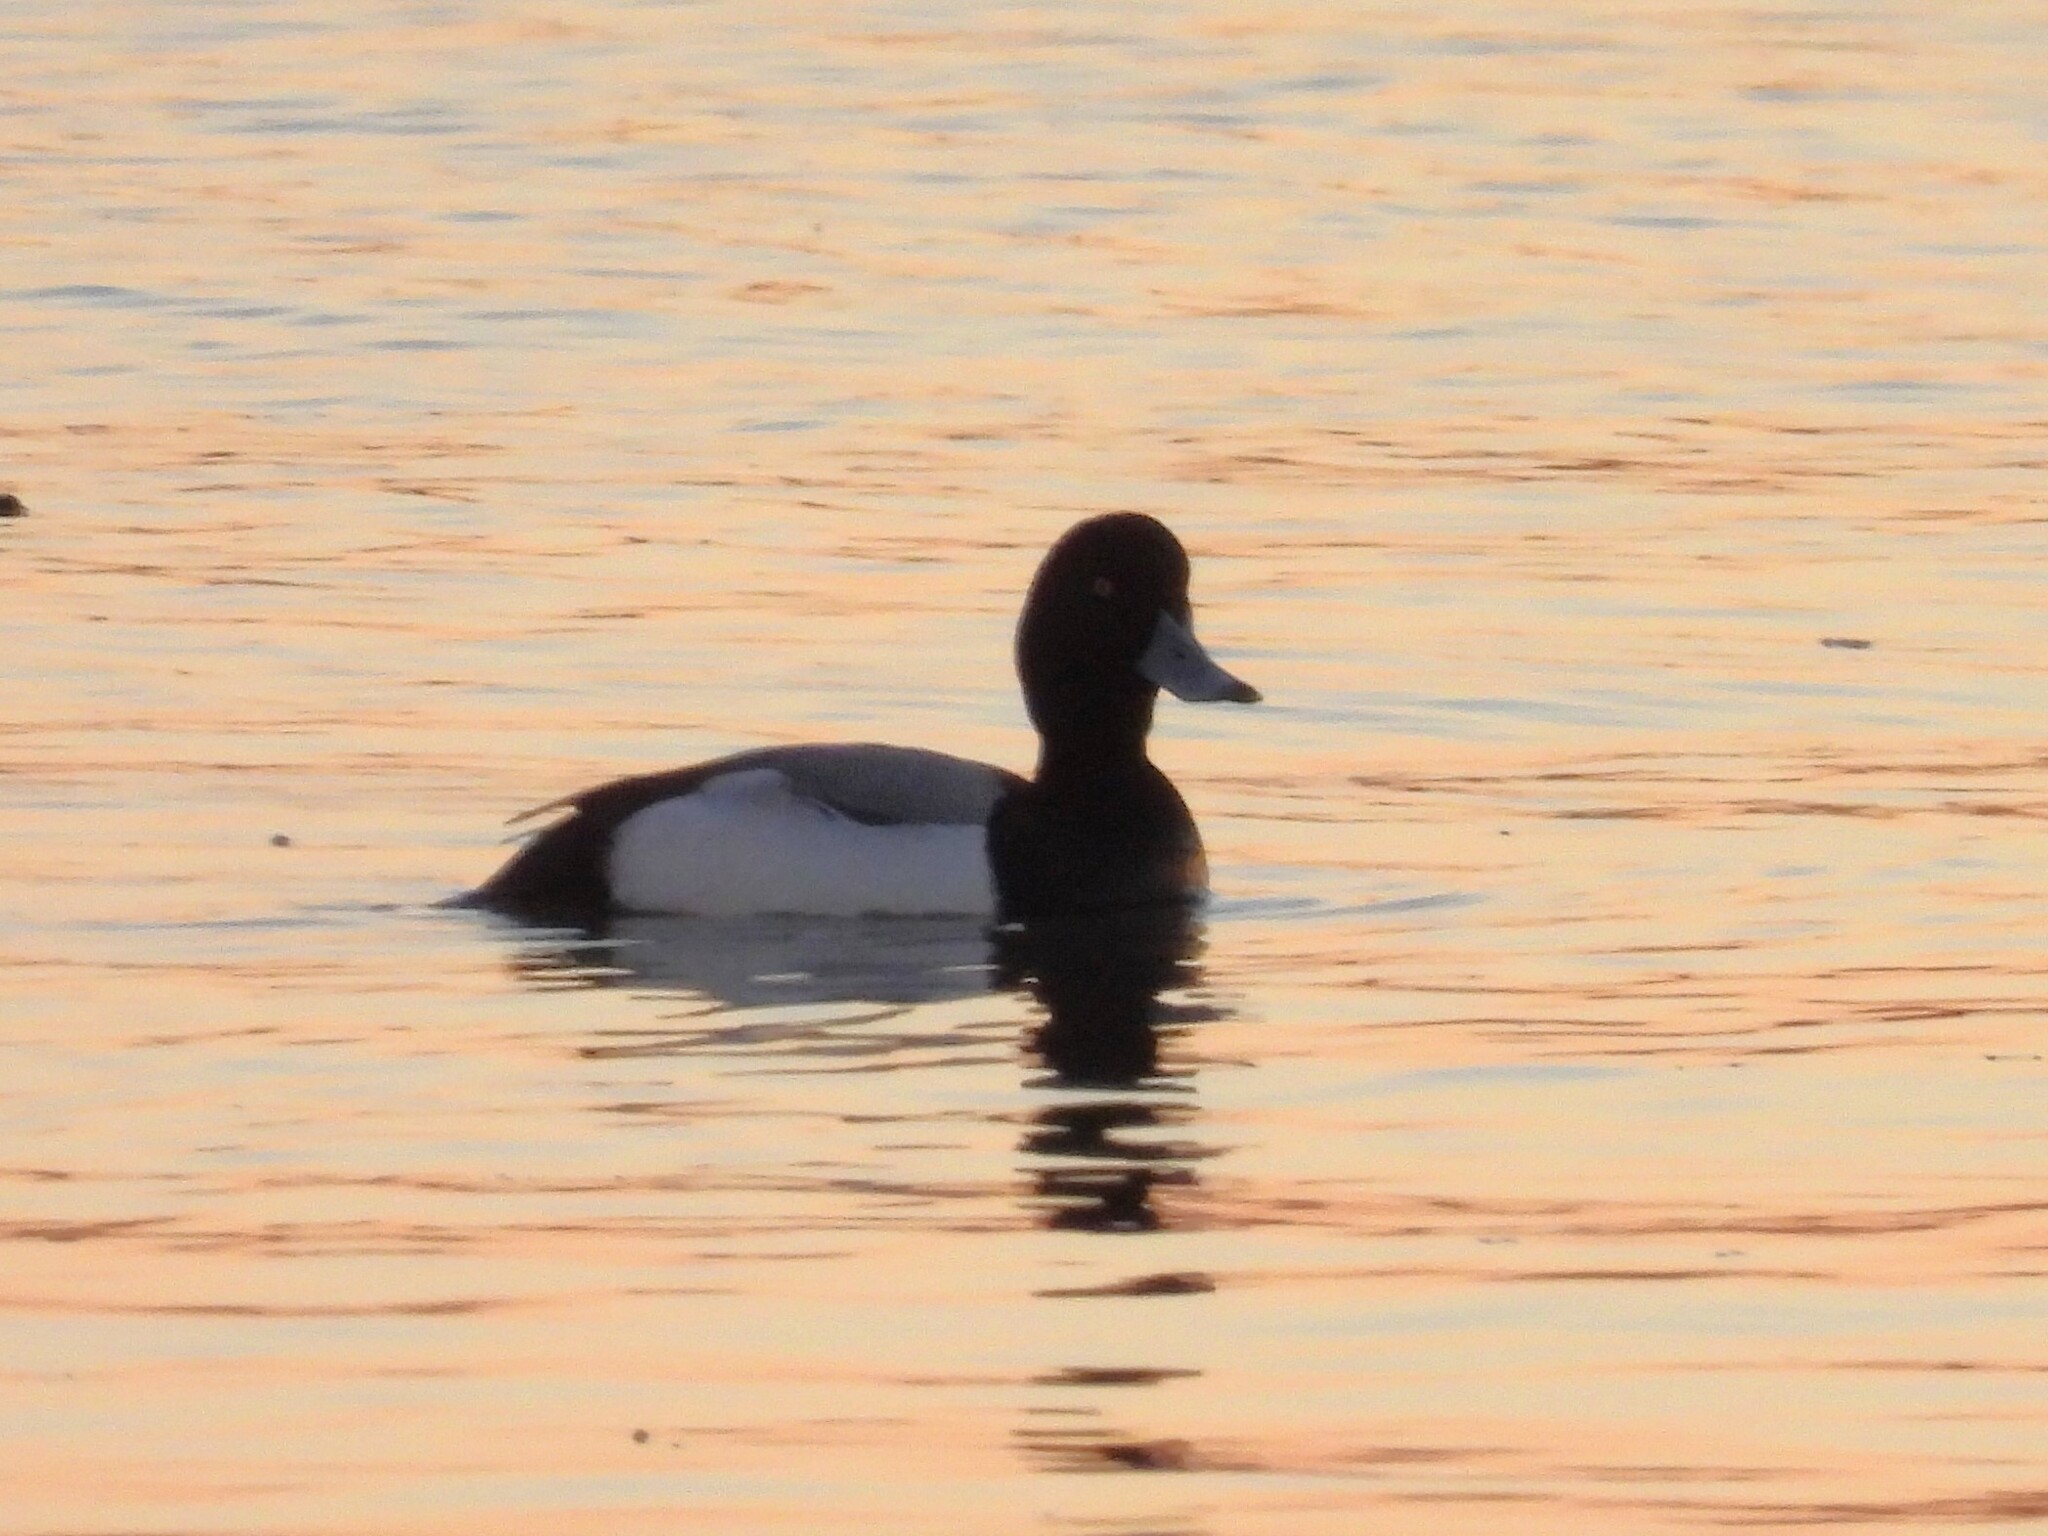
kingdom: Animalia
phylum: Chordata
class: Aves
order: Anseriformes
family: Anatidae
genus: Aythya
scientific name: Aythya marila
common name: Greater scaup
